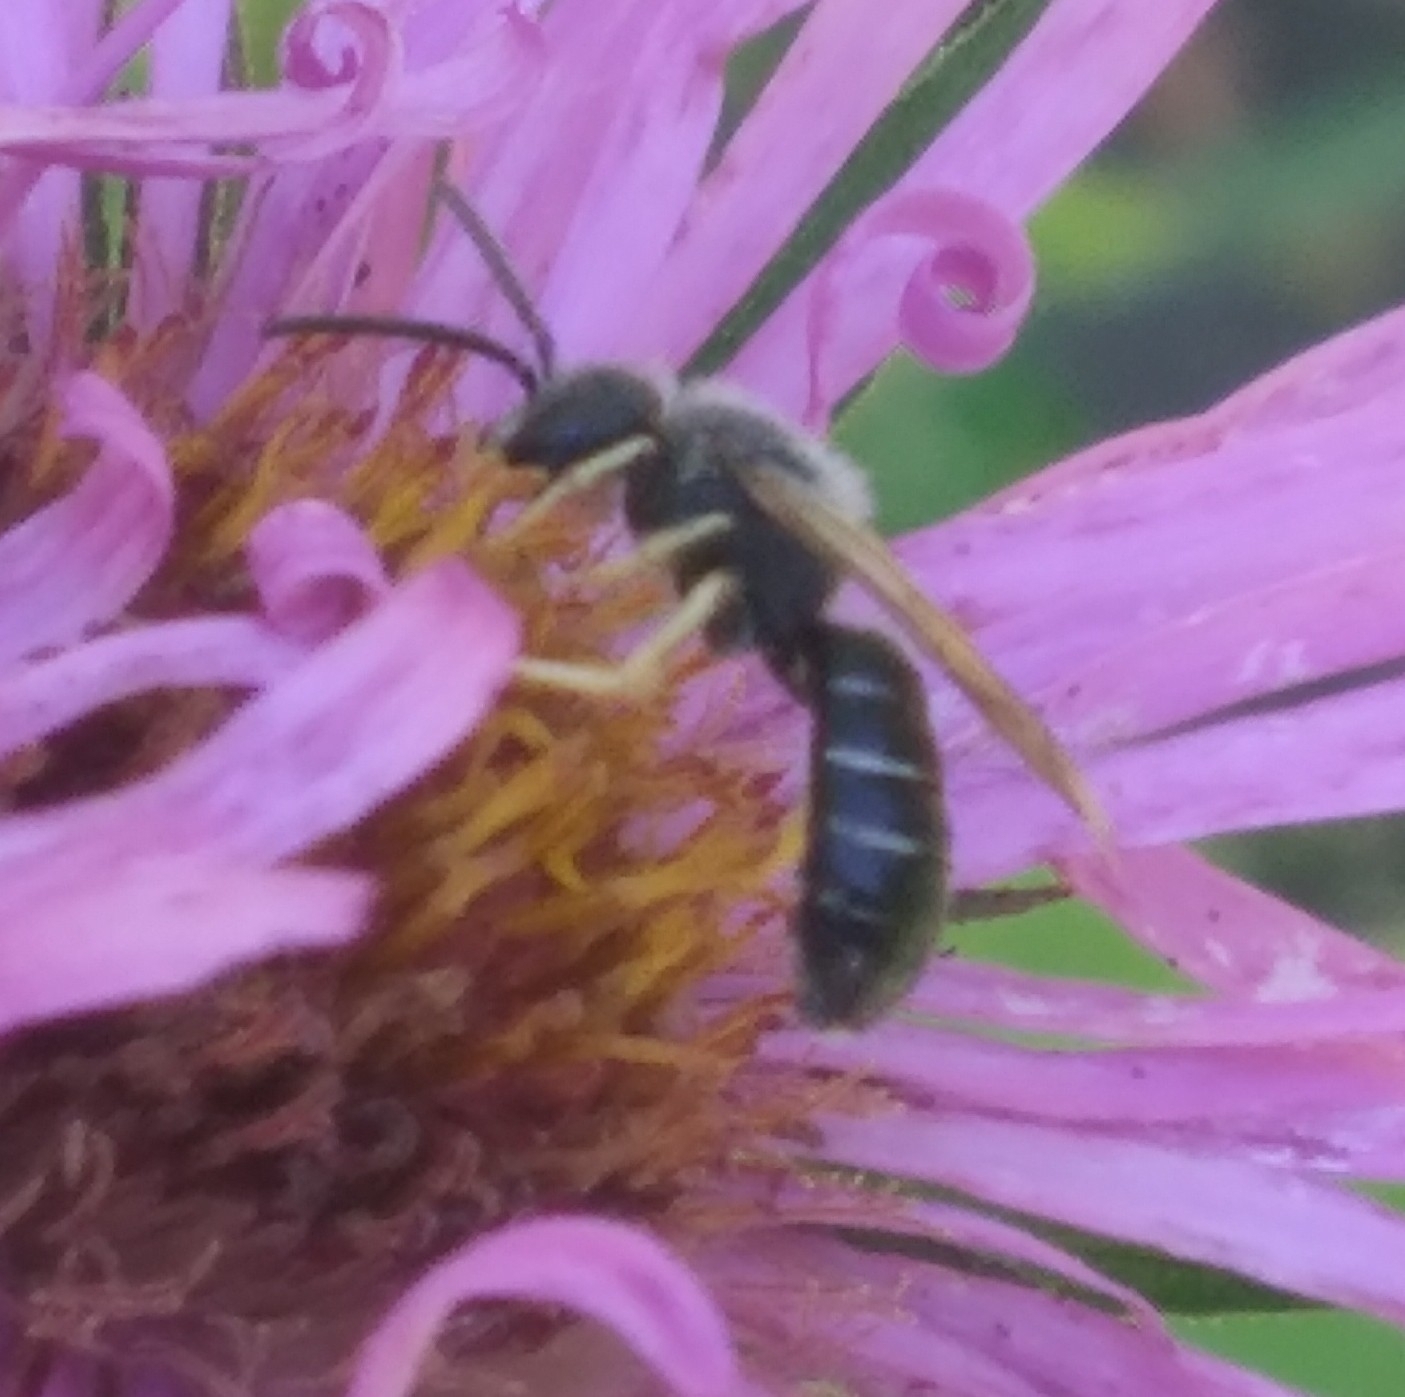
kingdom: Animalia
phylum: Arthropoda
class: Insecta
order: Hymenoptera
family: Halictidae
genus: Halictus
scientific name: Halictus rubicundus
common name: Orange-legged furrow bee
